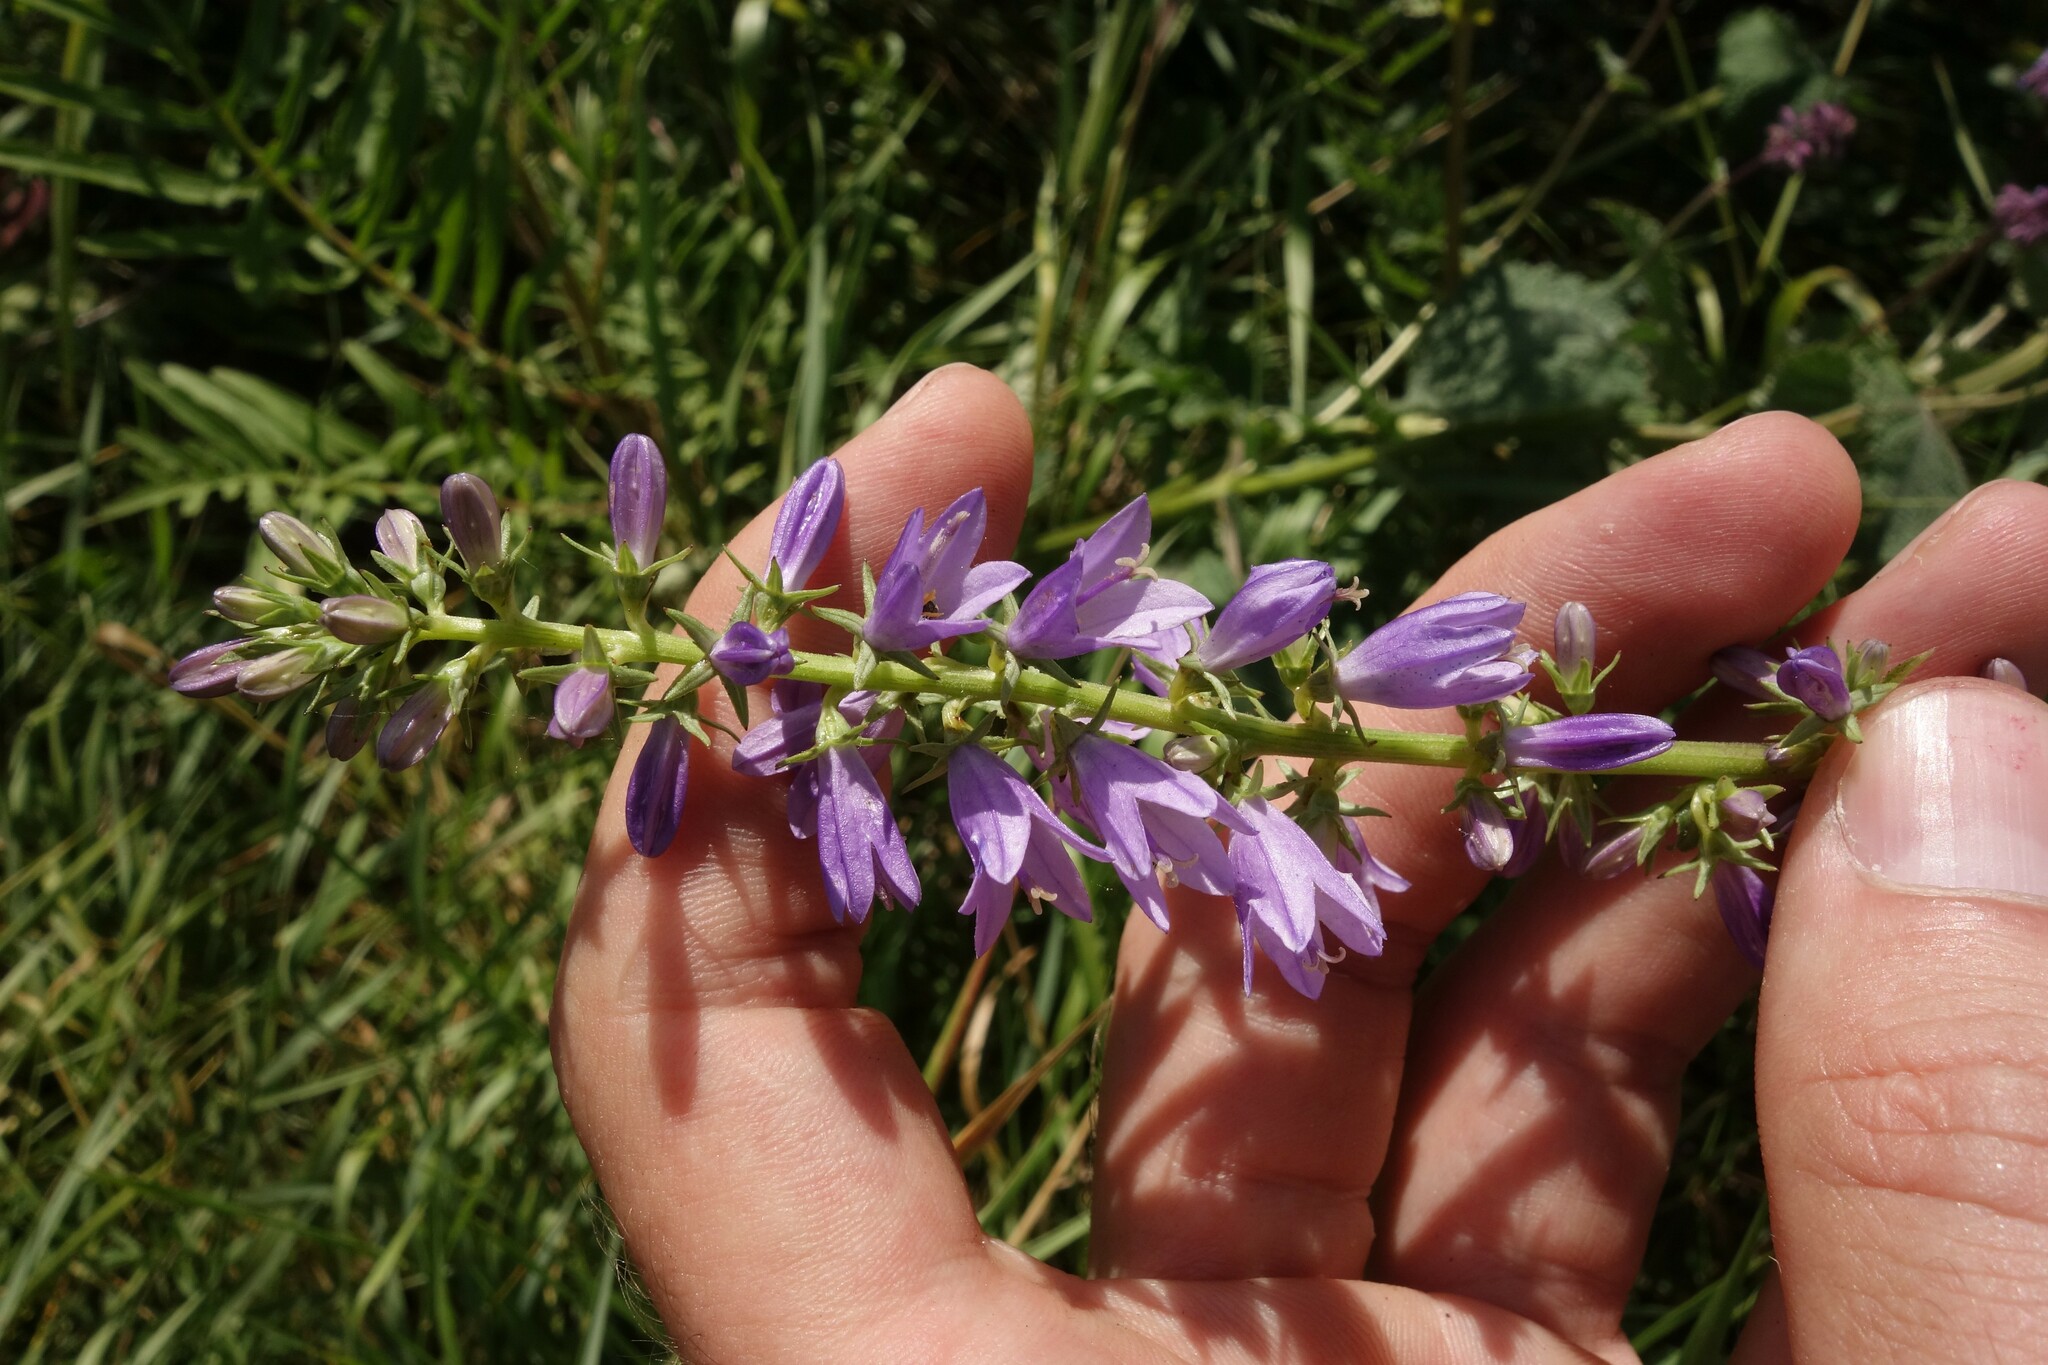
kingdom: Plantae
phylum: Tracheophyta
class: Magnoliopsida
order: Asterales
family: Campanulaceae
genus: Campanula
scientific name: Campanula bononiensis
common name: Pale bellflower
